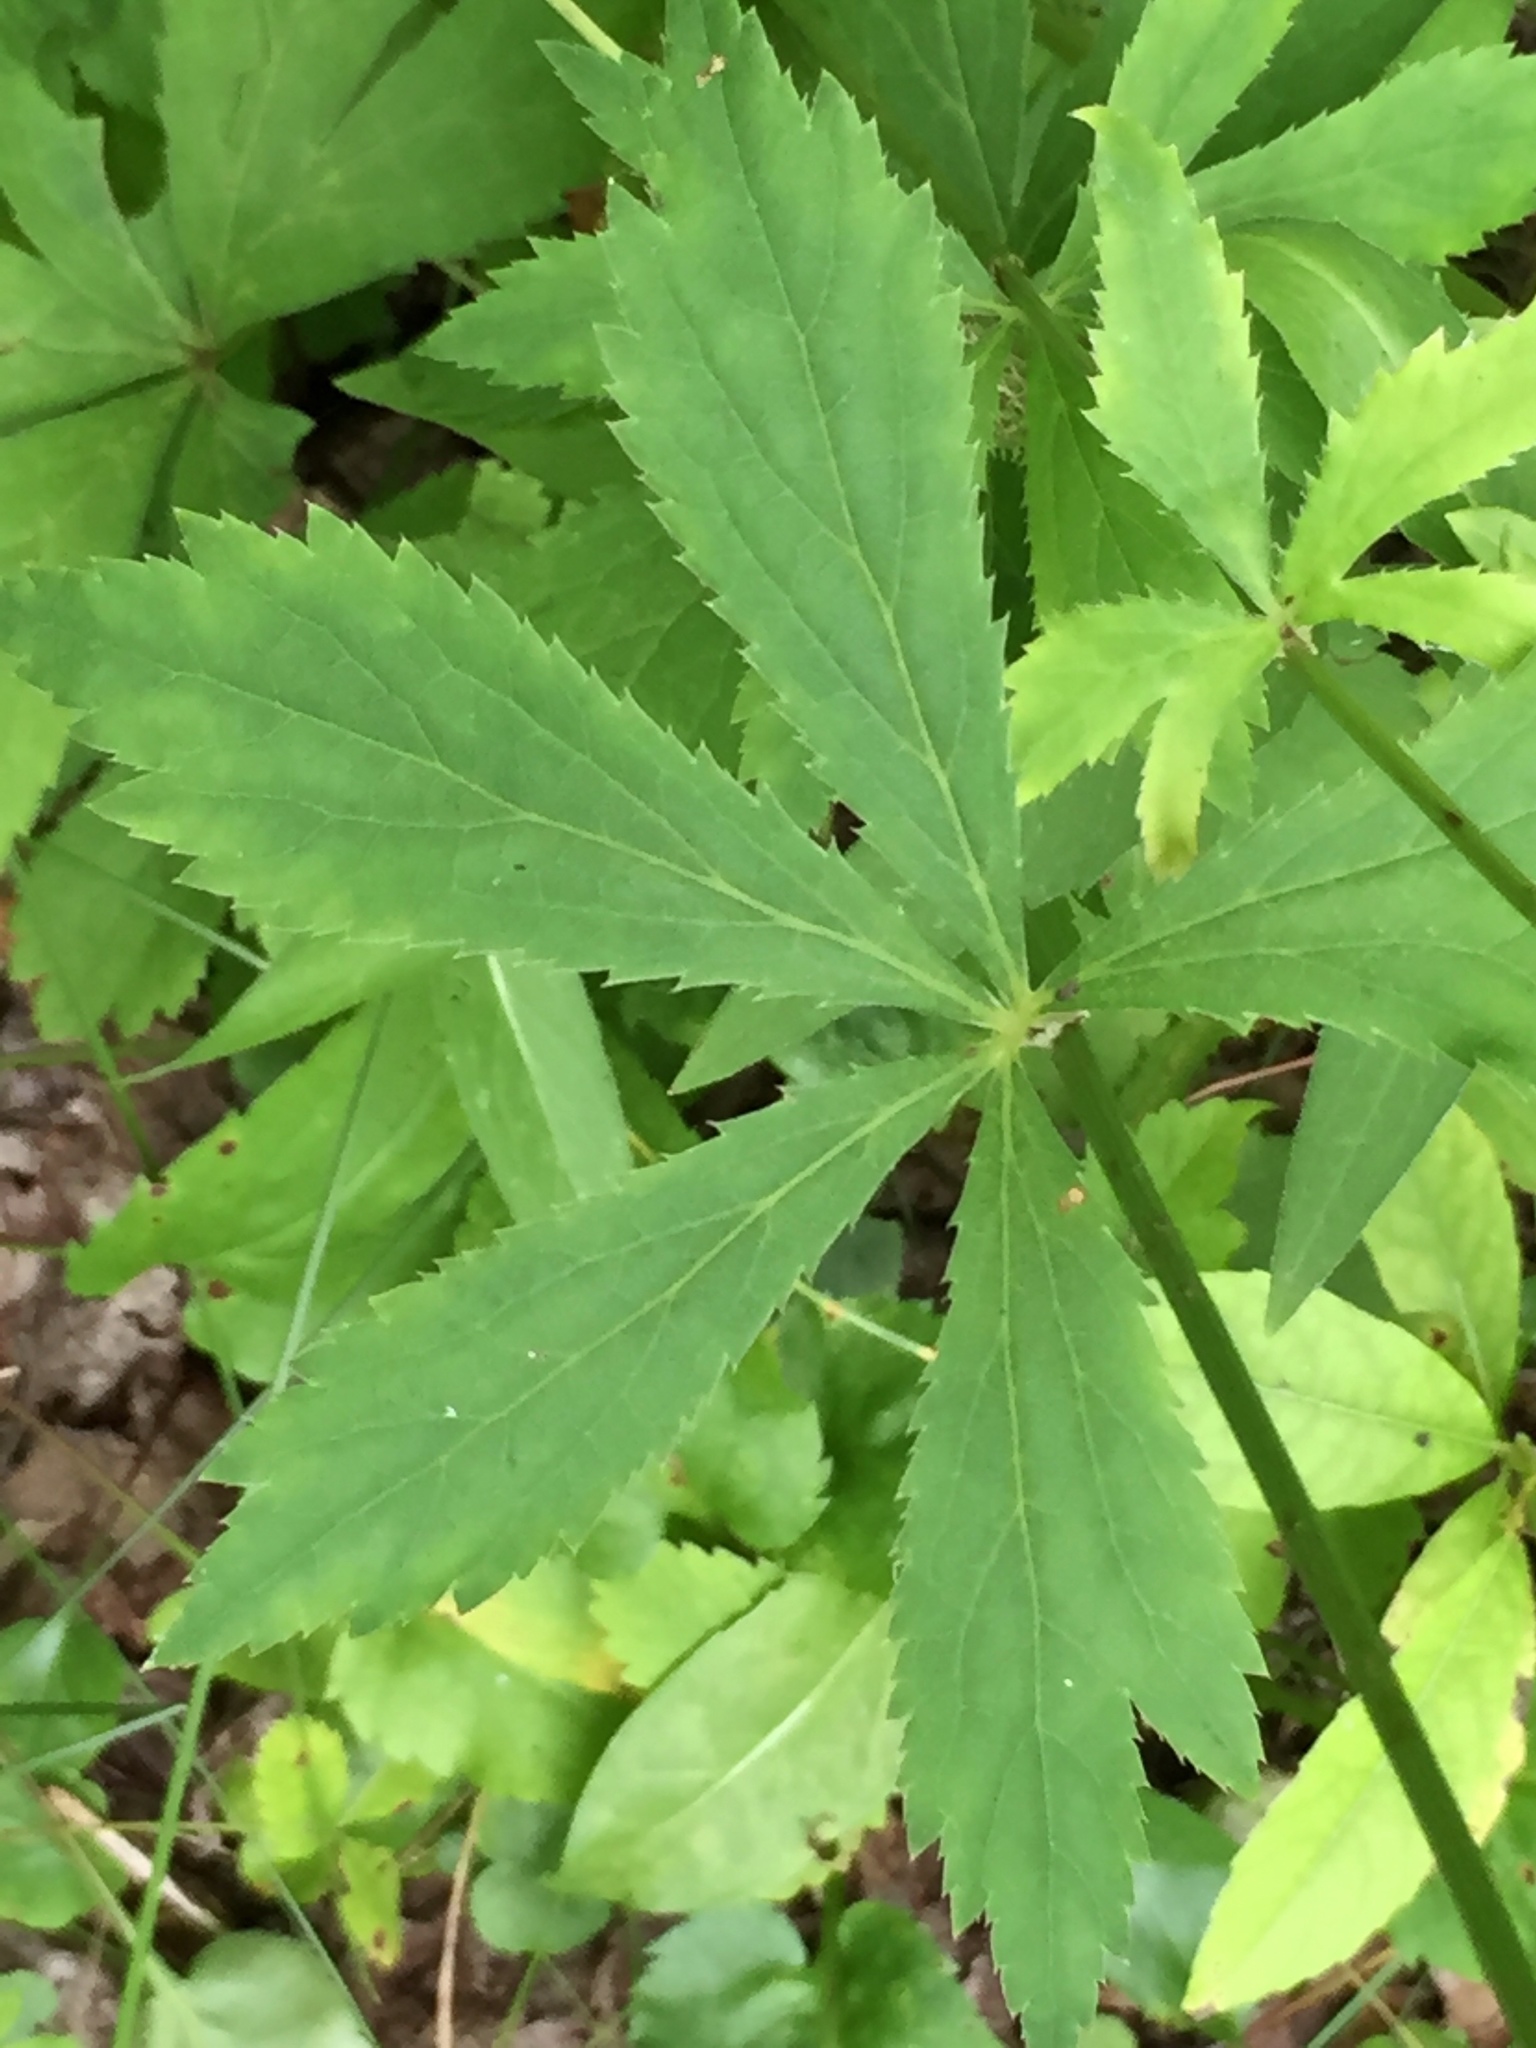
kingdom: Plantae
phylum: Tracheophyta
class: Magnoliopsida
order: Apiales
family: Apiaceae
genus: Sanicula
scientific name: Sanicula marilandica
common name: Black snakeroot
